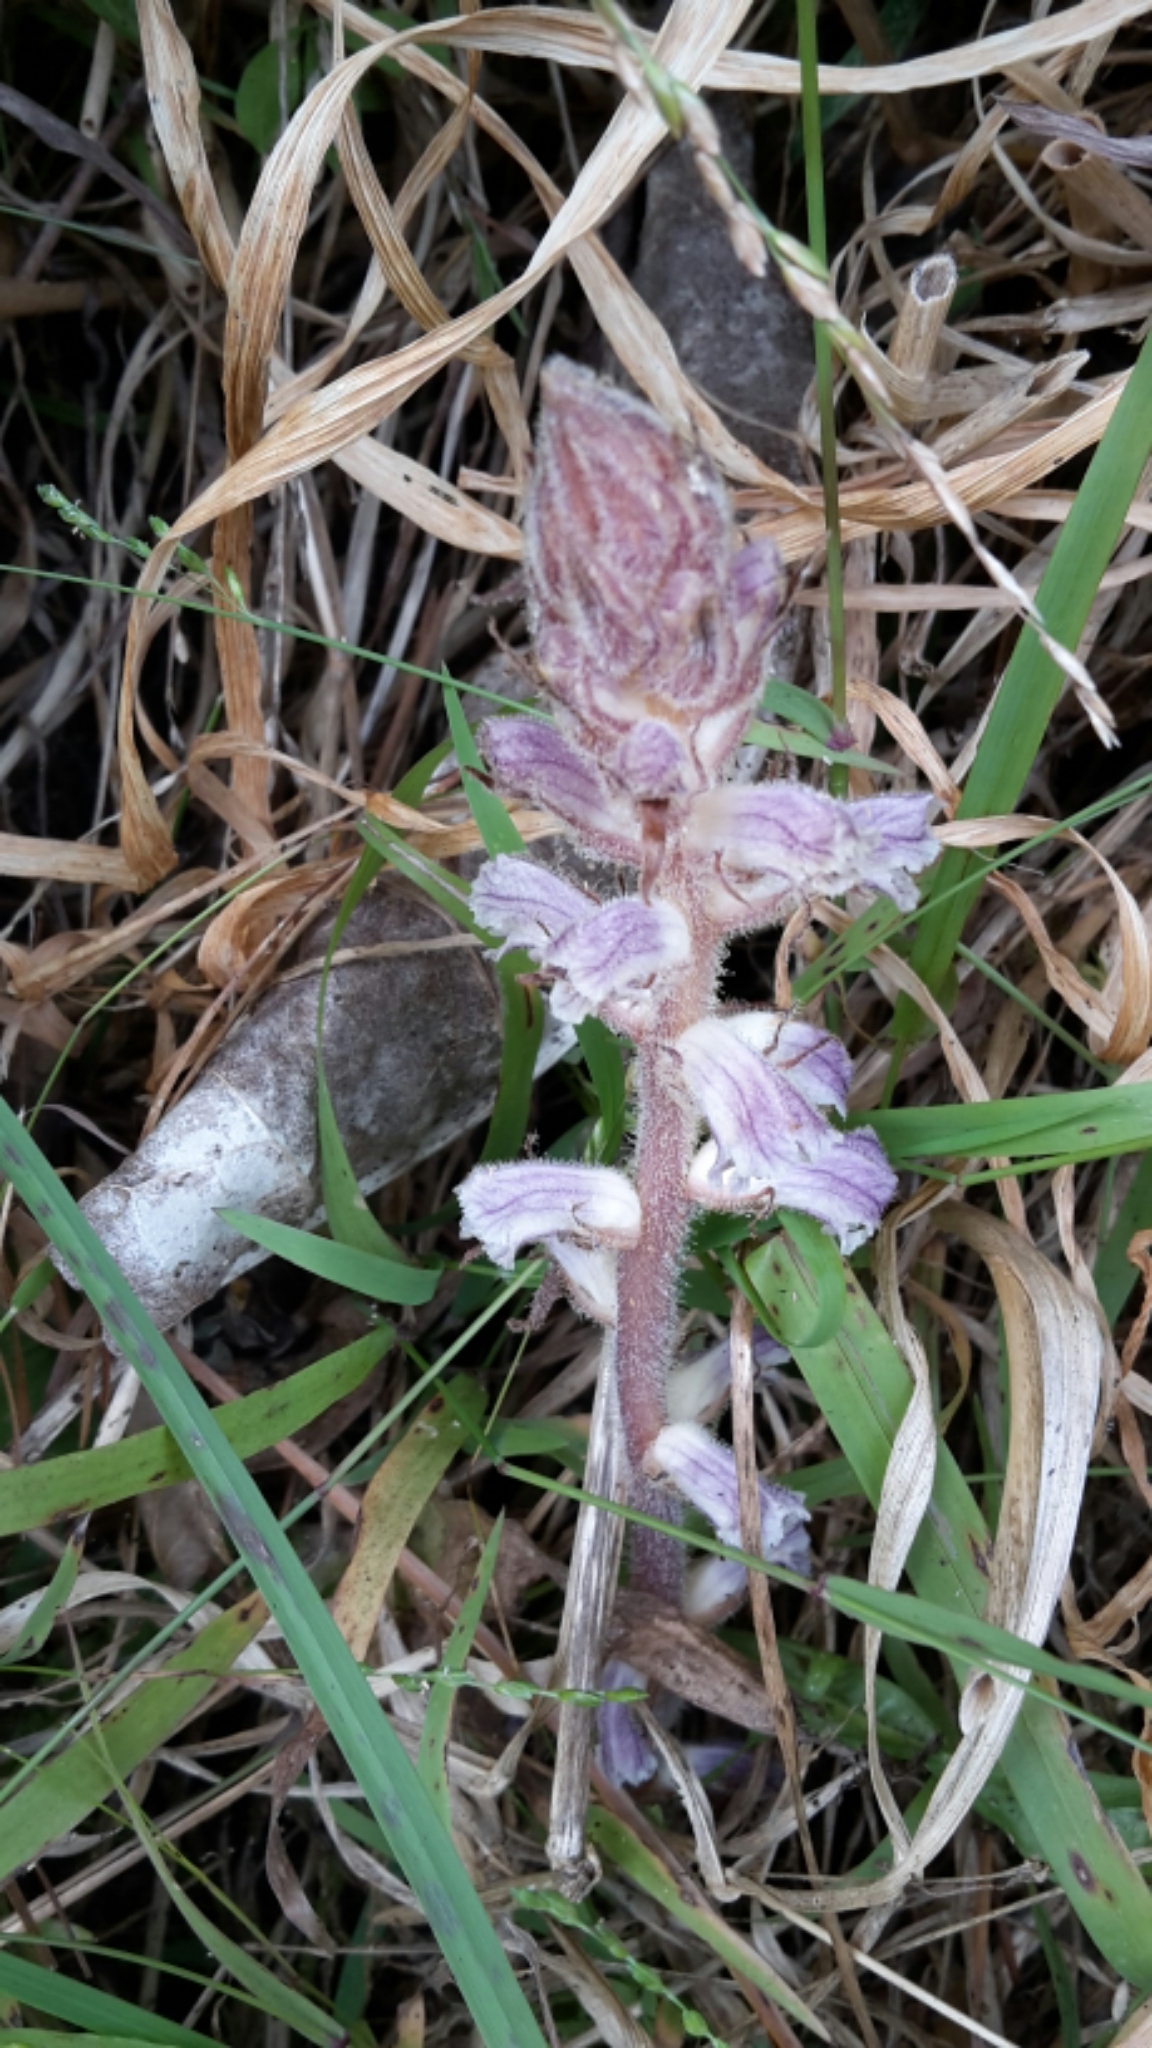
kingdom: Plantae
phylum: Tracheophyta
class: Magnoliopsida
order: Lamiales
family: Orobanchaceae
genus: Orobanche
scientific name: Orobanche minor
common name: Common broomrape
